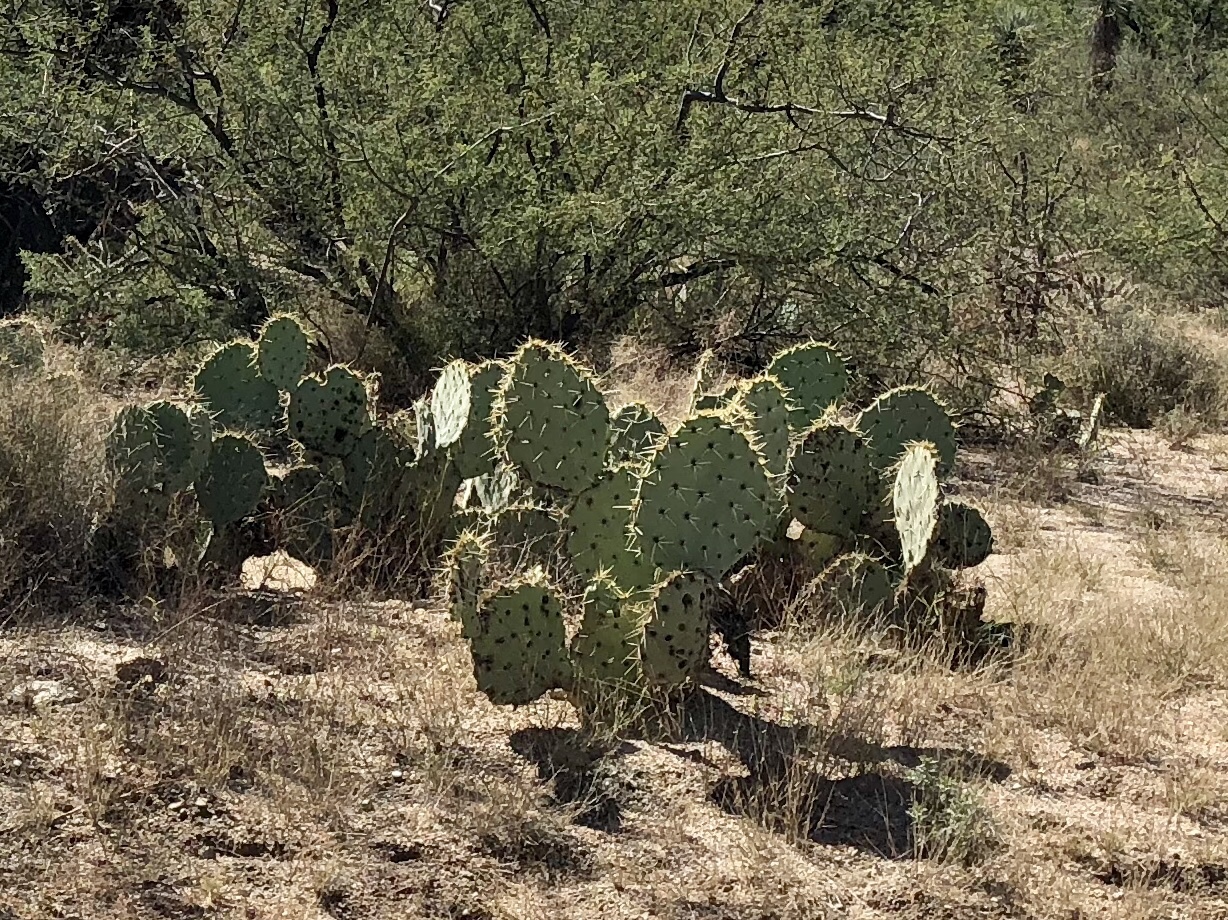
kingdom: Plantae
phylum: Tracheophyta
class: Magnoliopsida
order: Caryophyllales
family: Cactaceae
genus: Opuntia
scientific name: Opuntia engelmannii
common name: Cactus-apple
